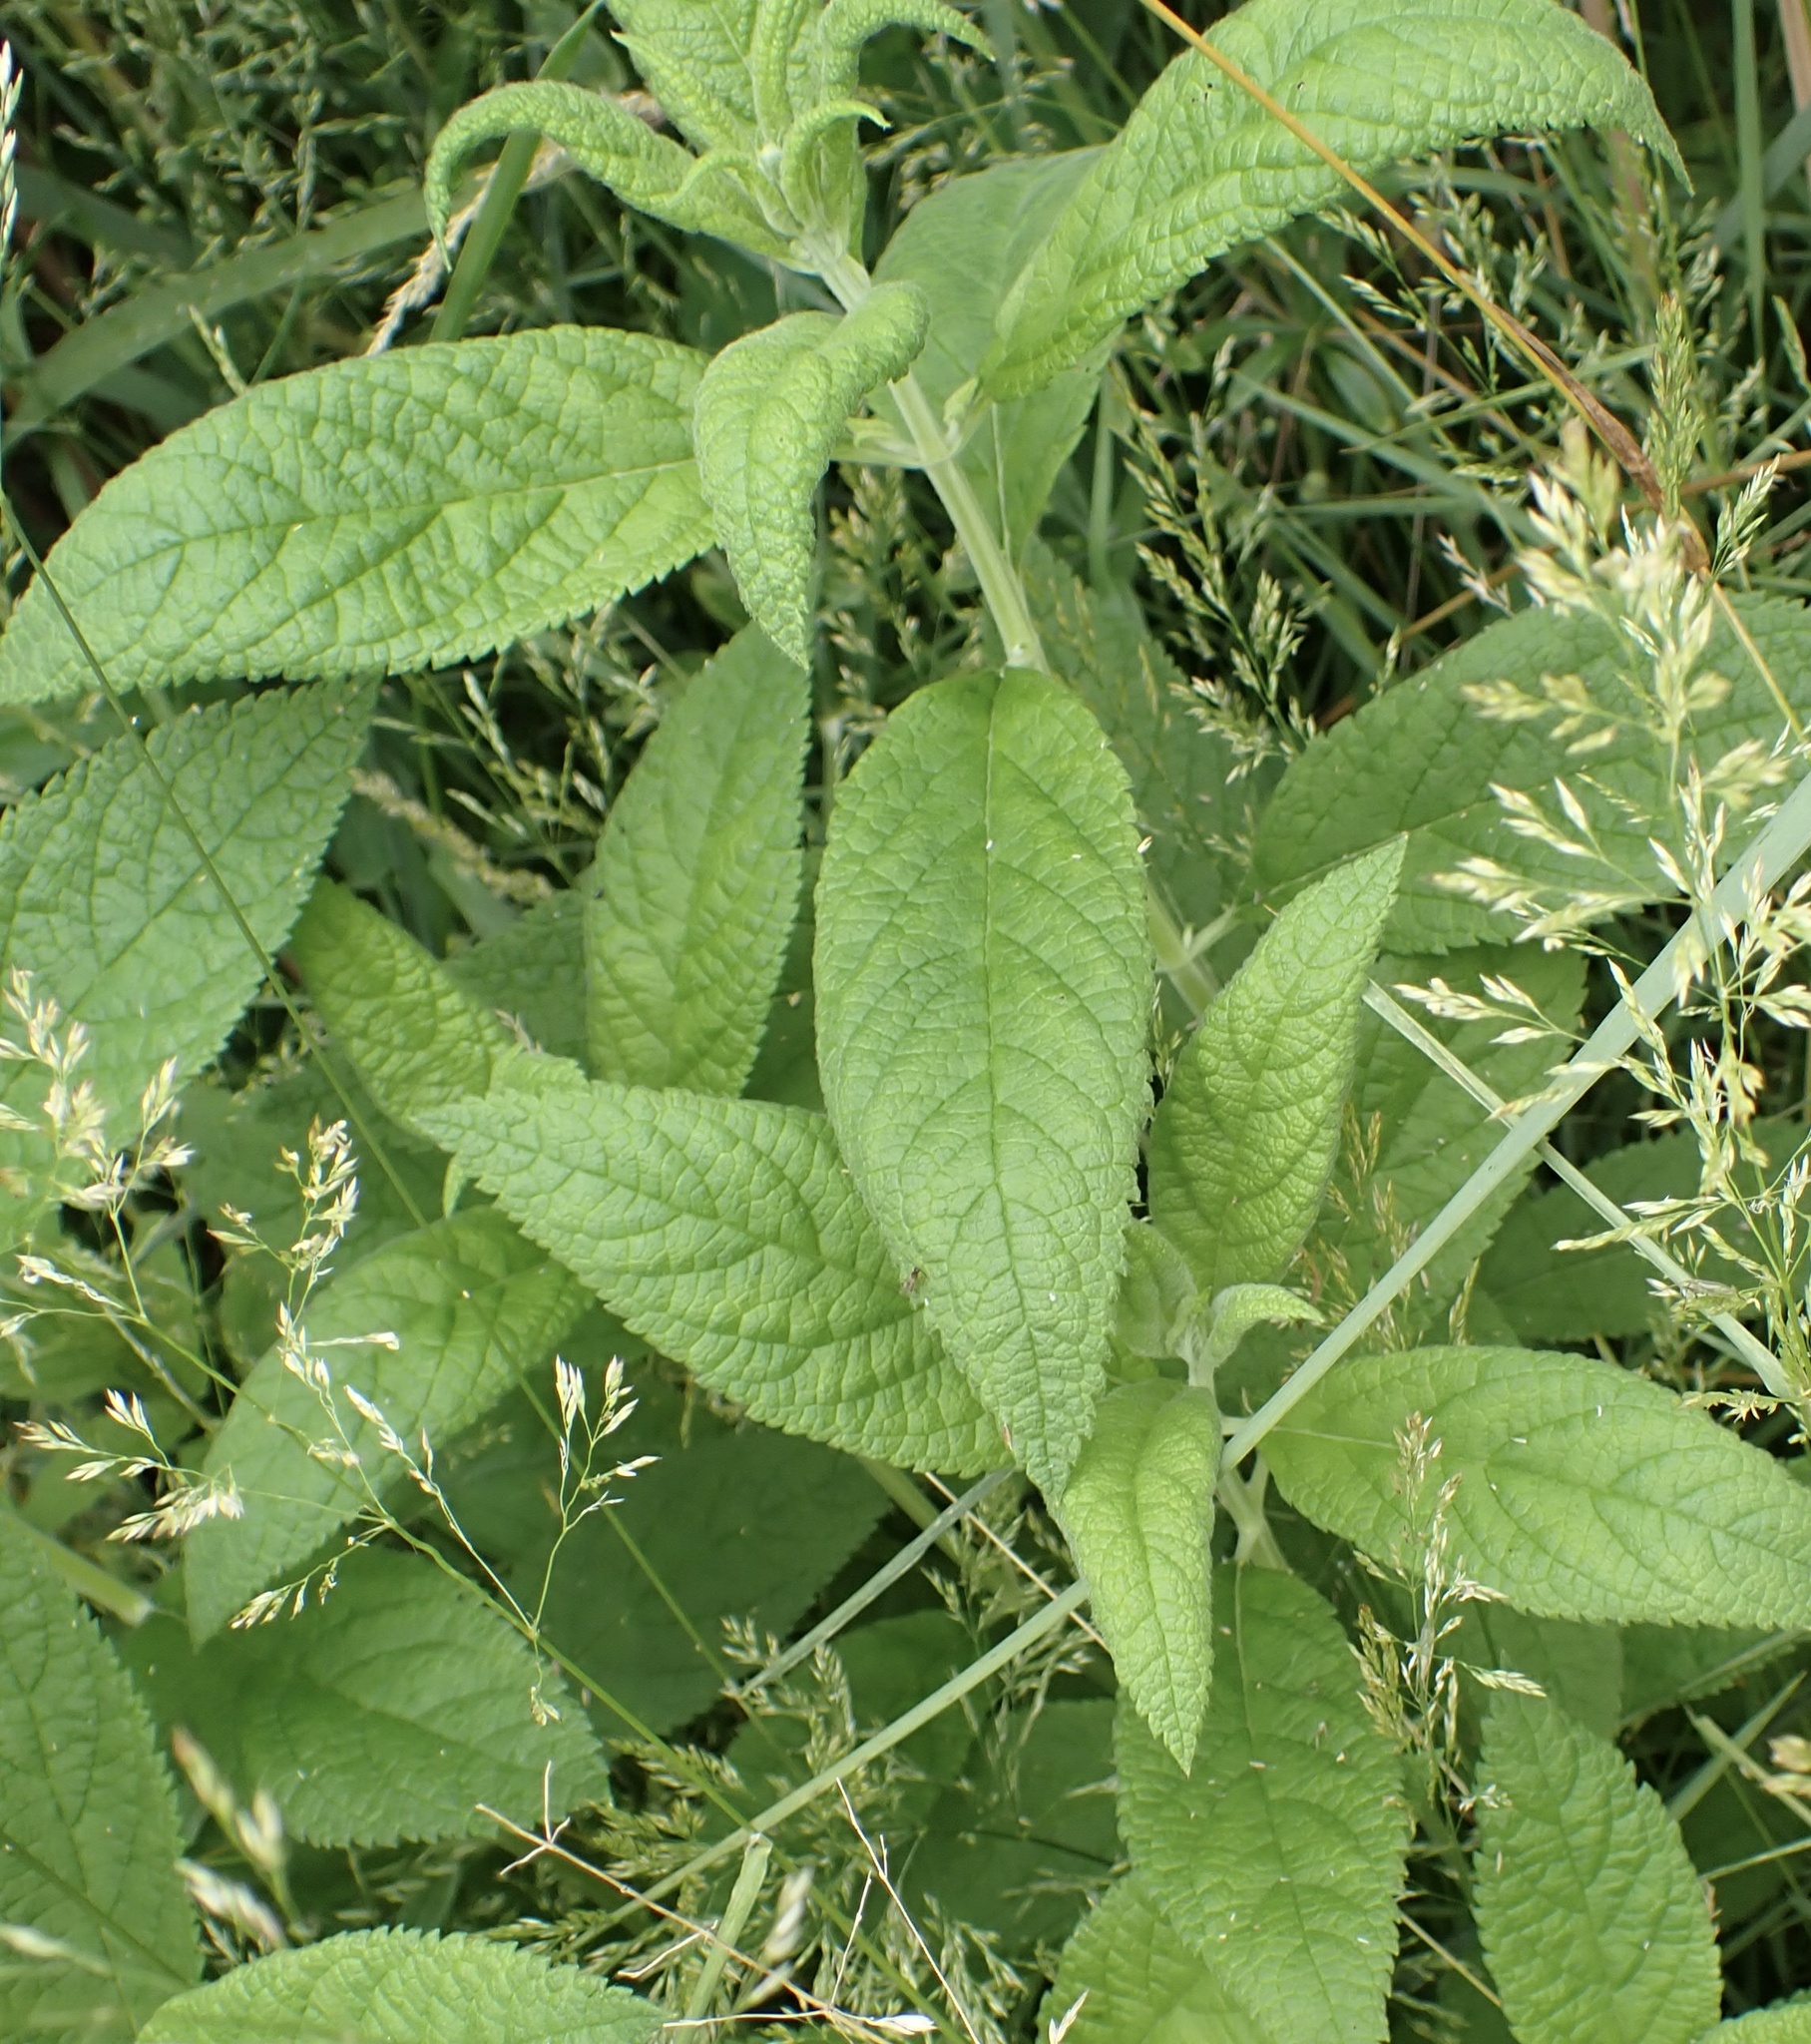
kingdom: Plantae
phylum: Tracheophyta
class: Magnoliopsida
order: Lamiales
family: Lamiaceae
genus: Teucrium
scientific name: Teucrium canadense
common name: American germander
